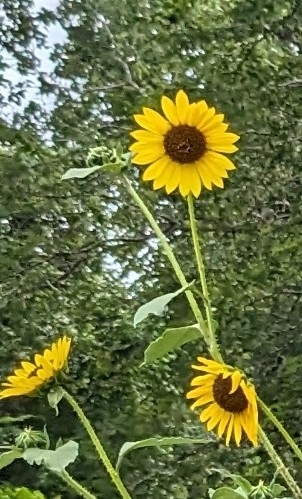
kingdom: Plantae
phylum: Tracheophyta
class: Magnoliopsida
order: Asterales
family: Asteraceae
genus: Helianthus
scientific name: Helianthus annuus
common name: Sunflower
